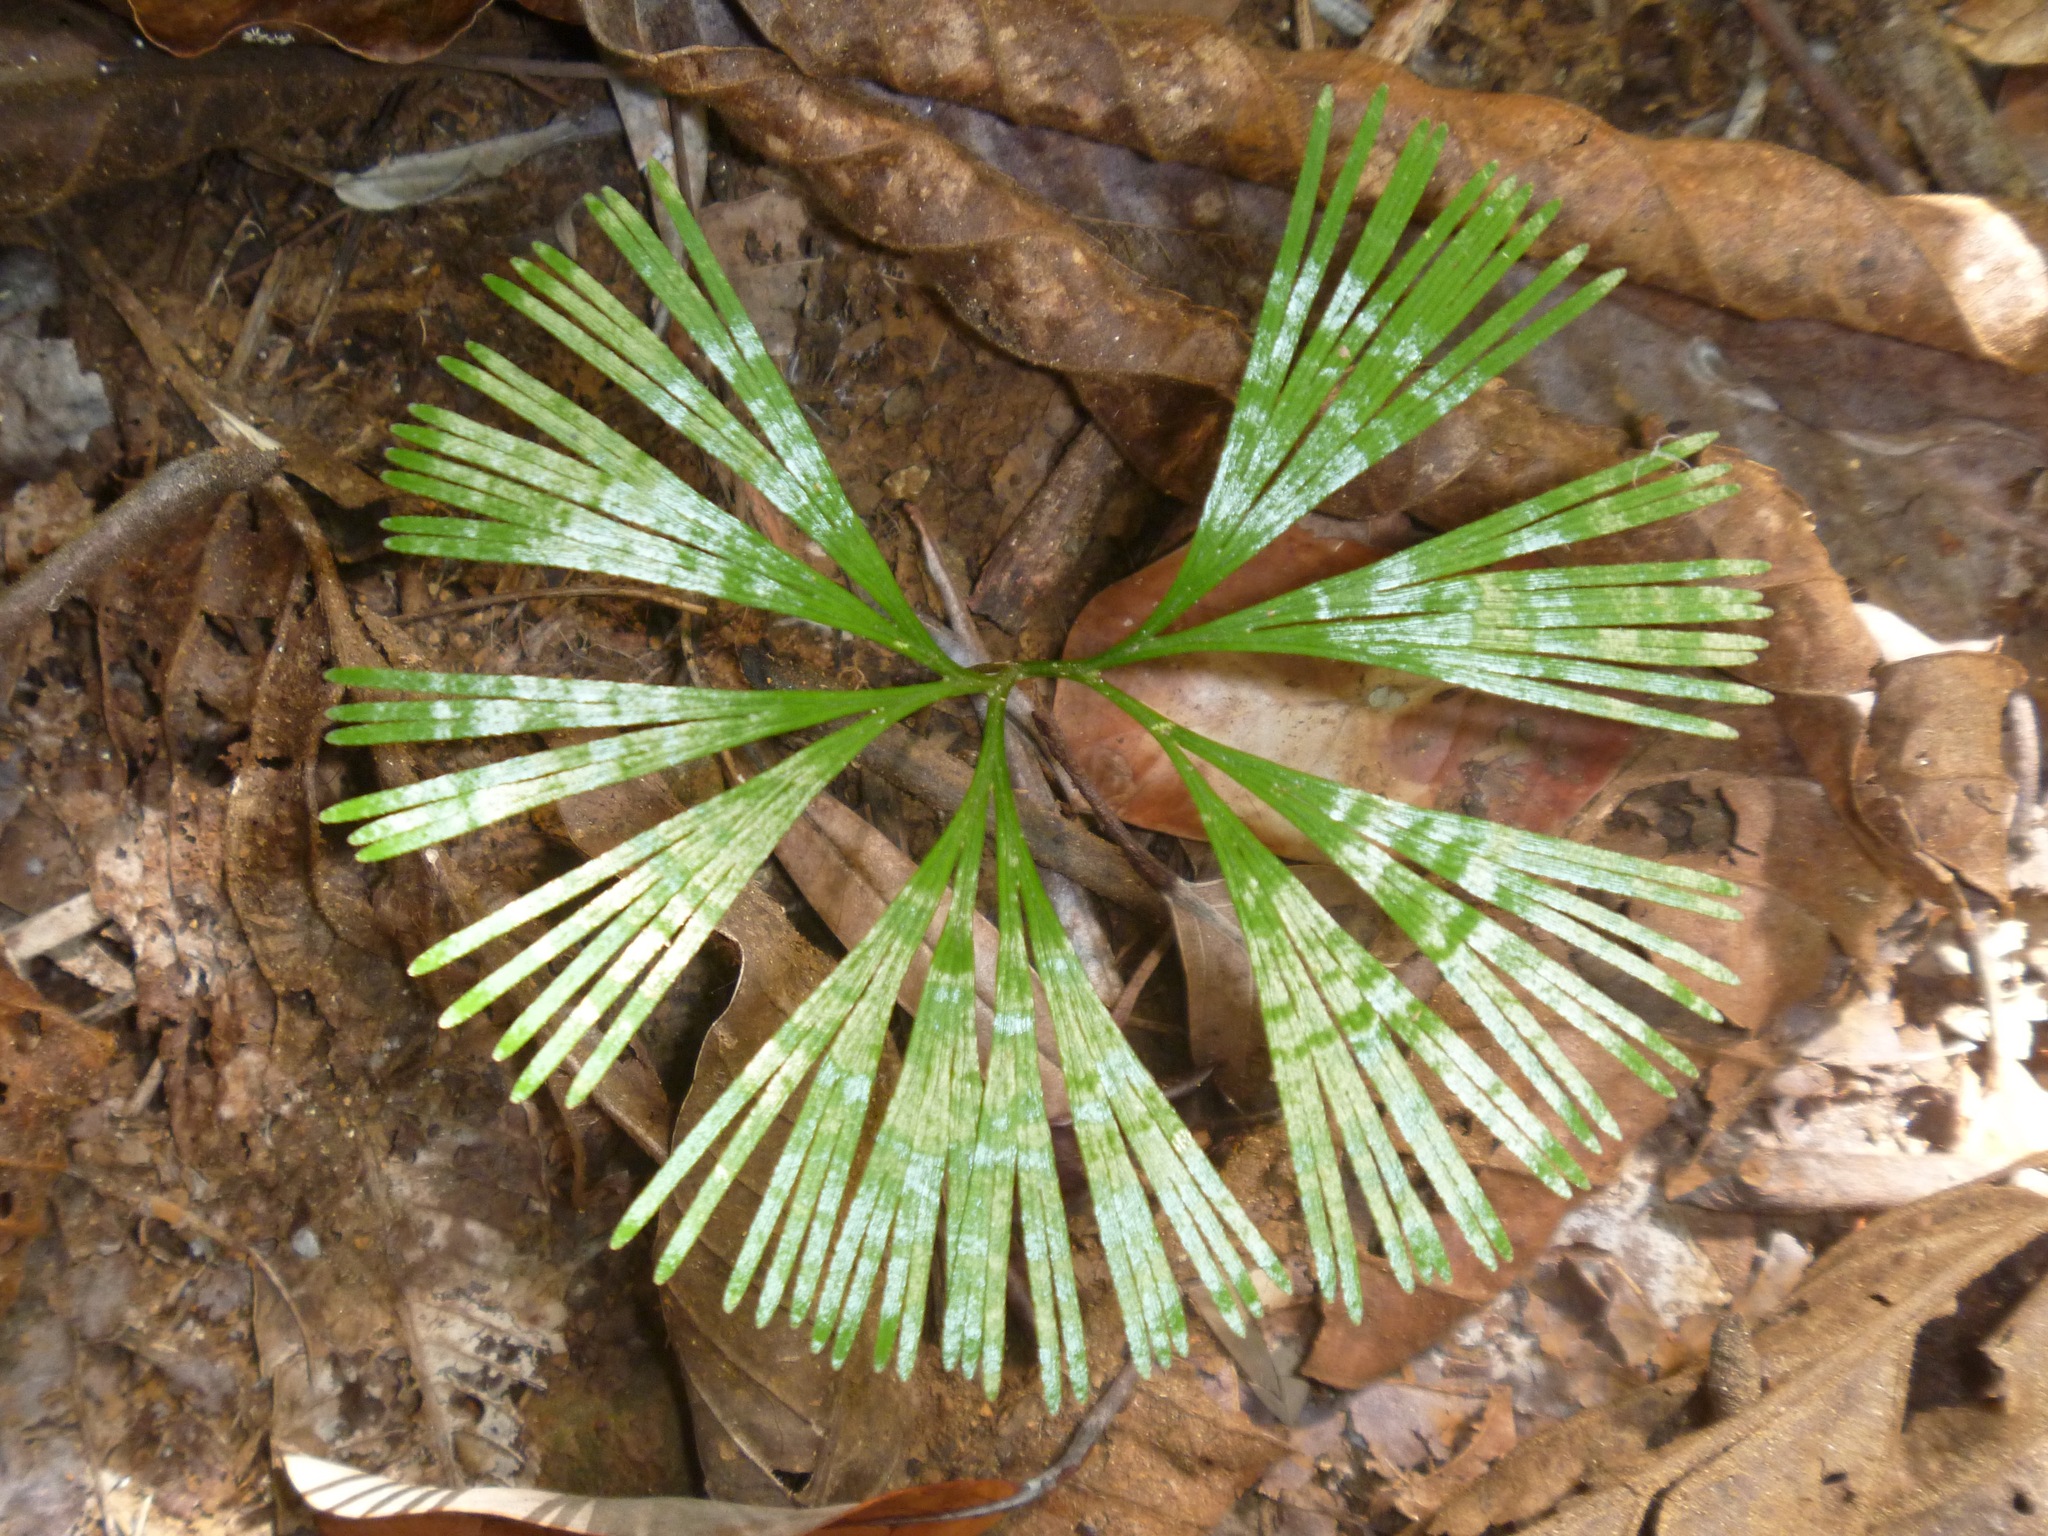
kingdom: Plantae
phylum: Tracheophyta
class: Polypodiopsida
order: Schizaeales
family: Schizaeaceae
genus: Schizaea
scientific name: Schizaea dichotoma
